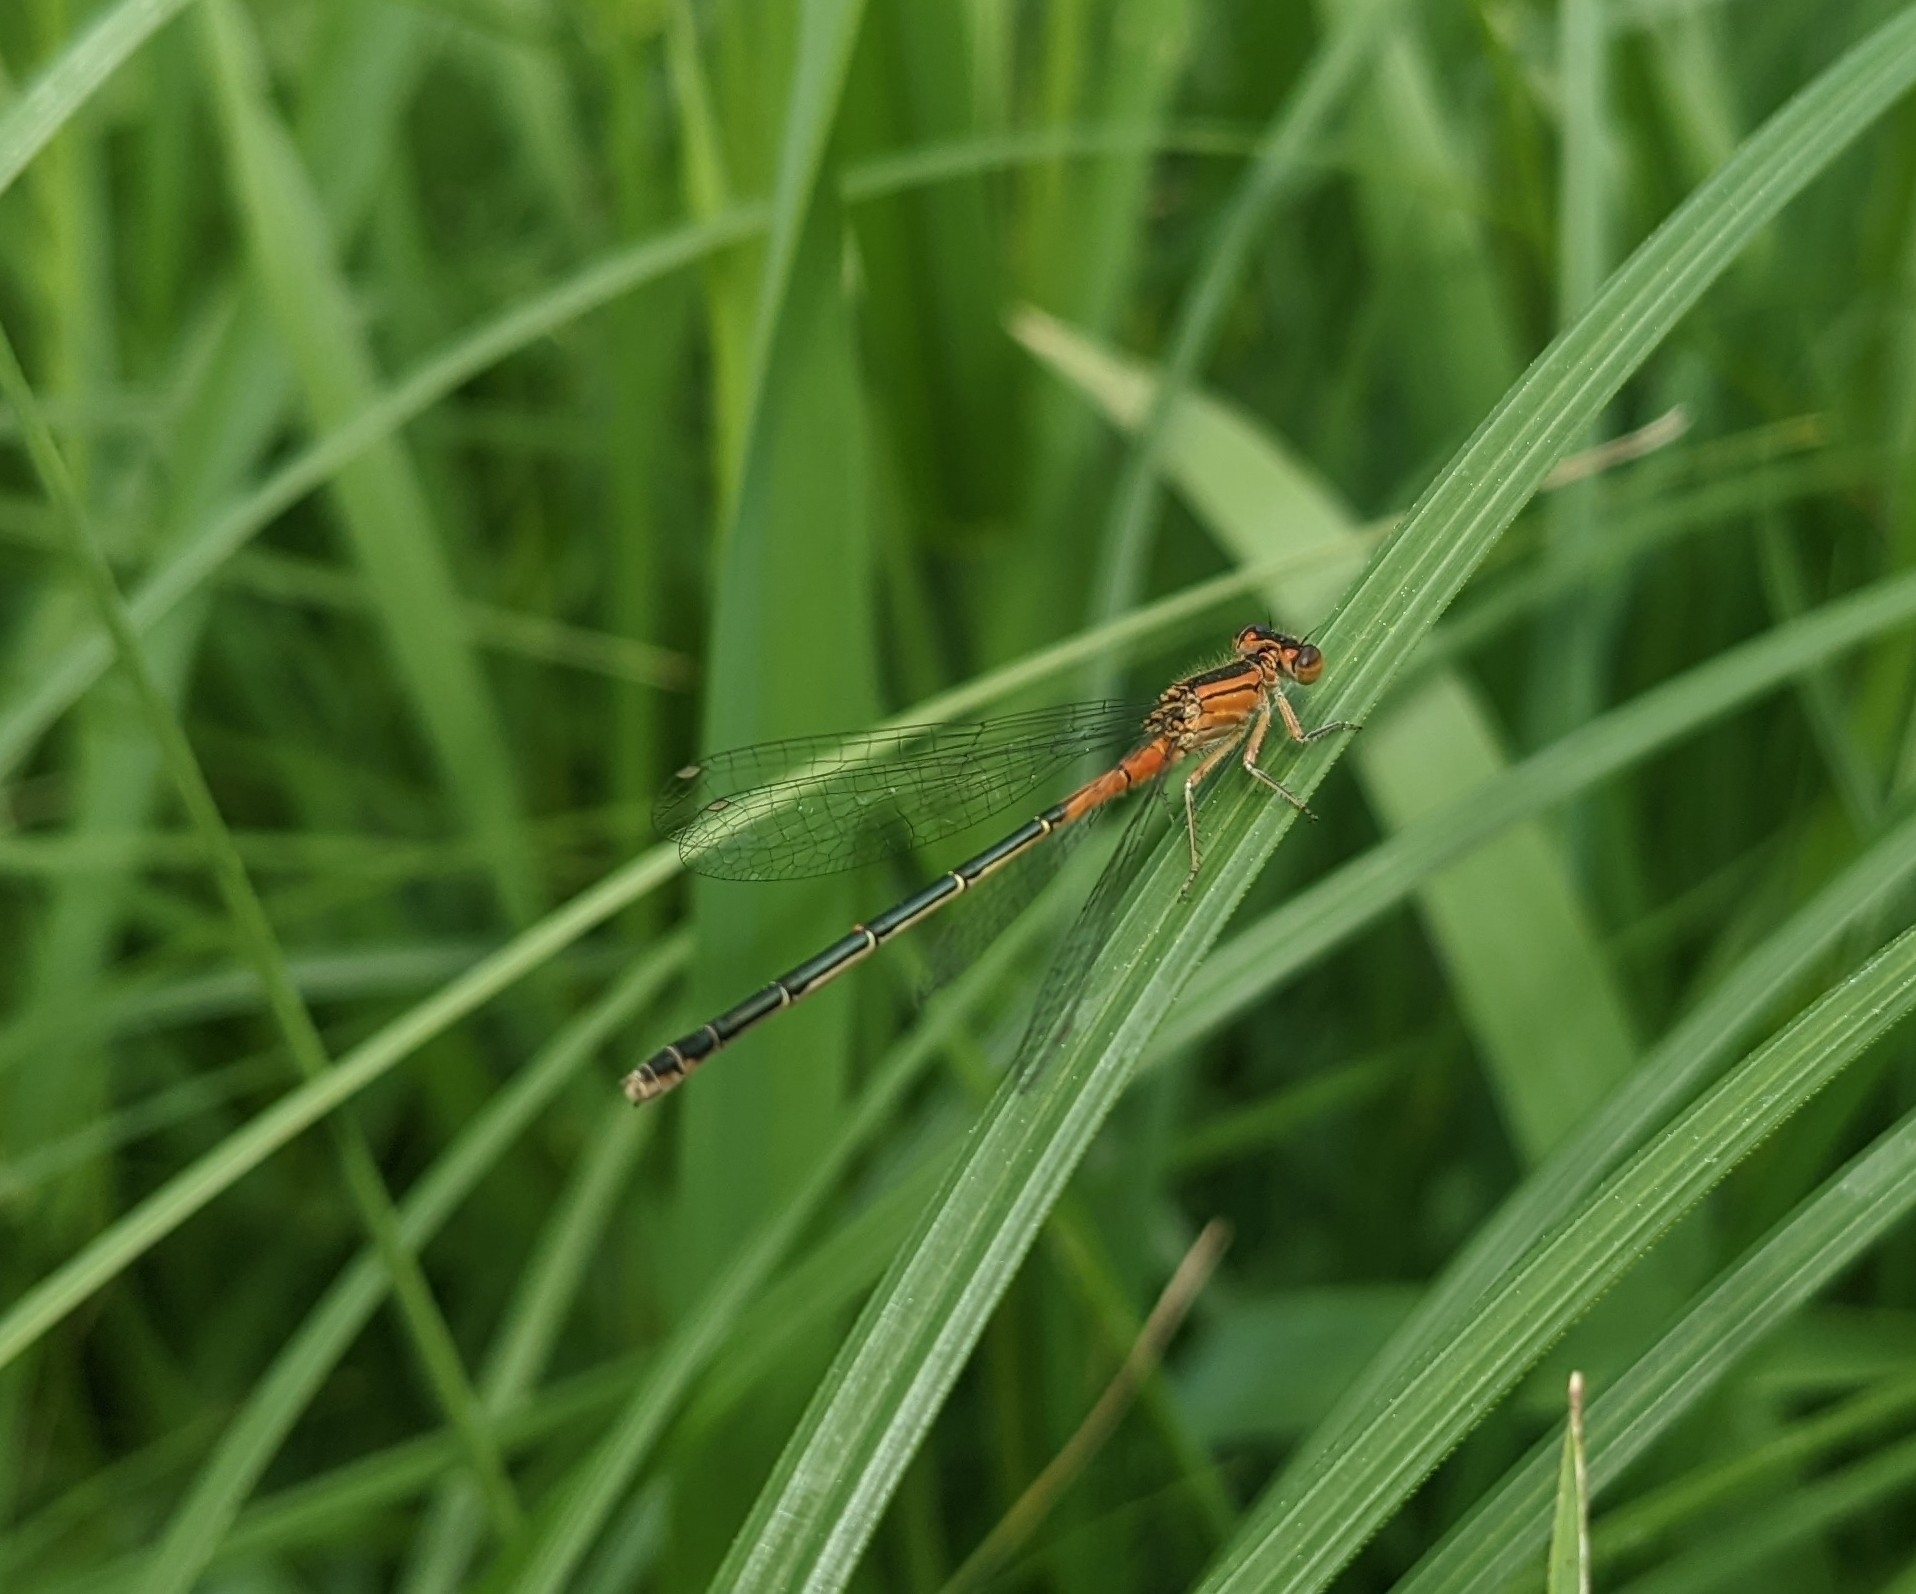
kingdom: Animalia
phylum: Arthropoda
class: Insecta
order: Odonata
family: Coenagrionidae
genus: Ischnura
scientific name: Ischnura verticalis
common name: Eastern forktail
